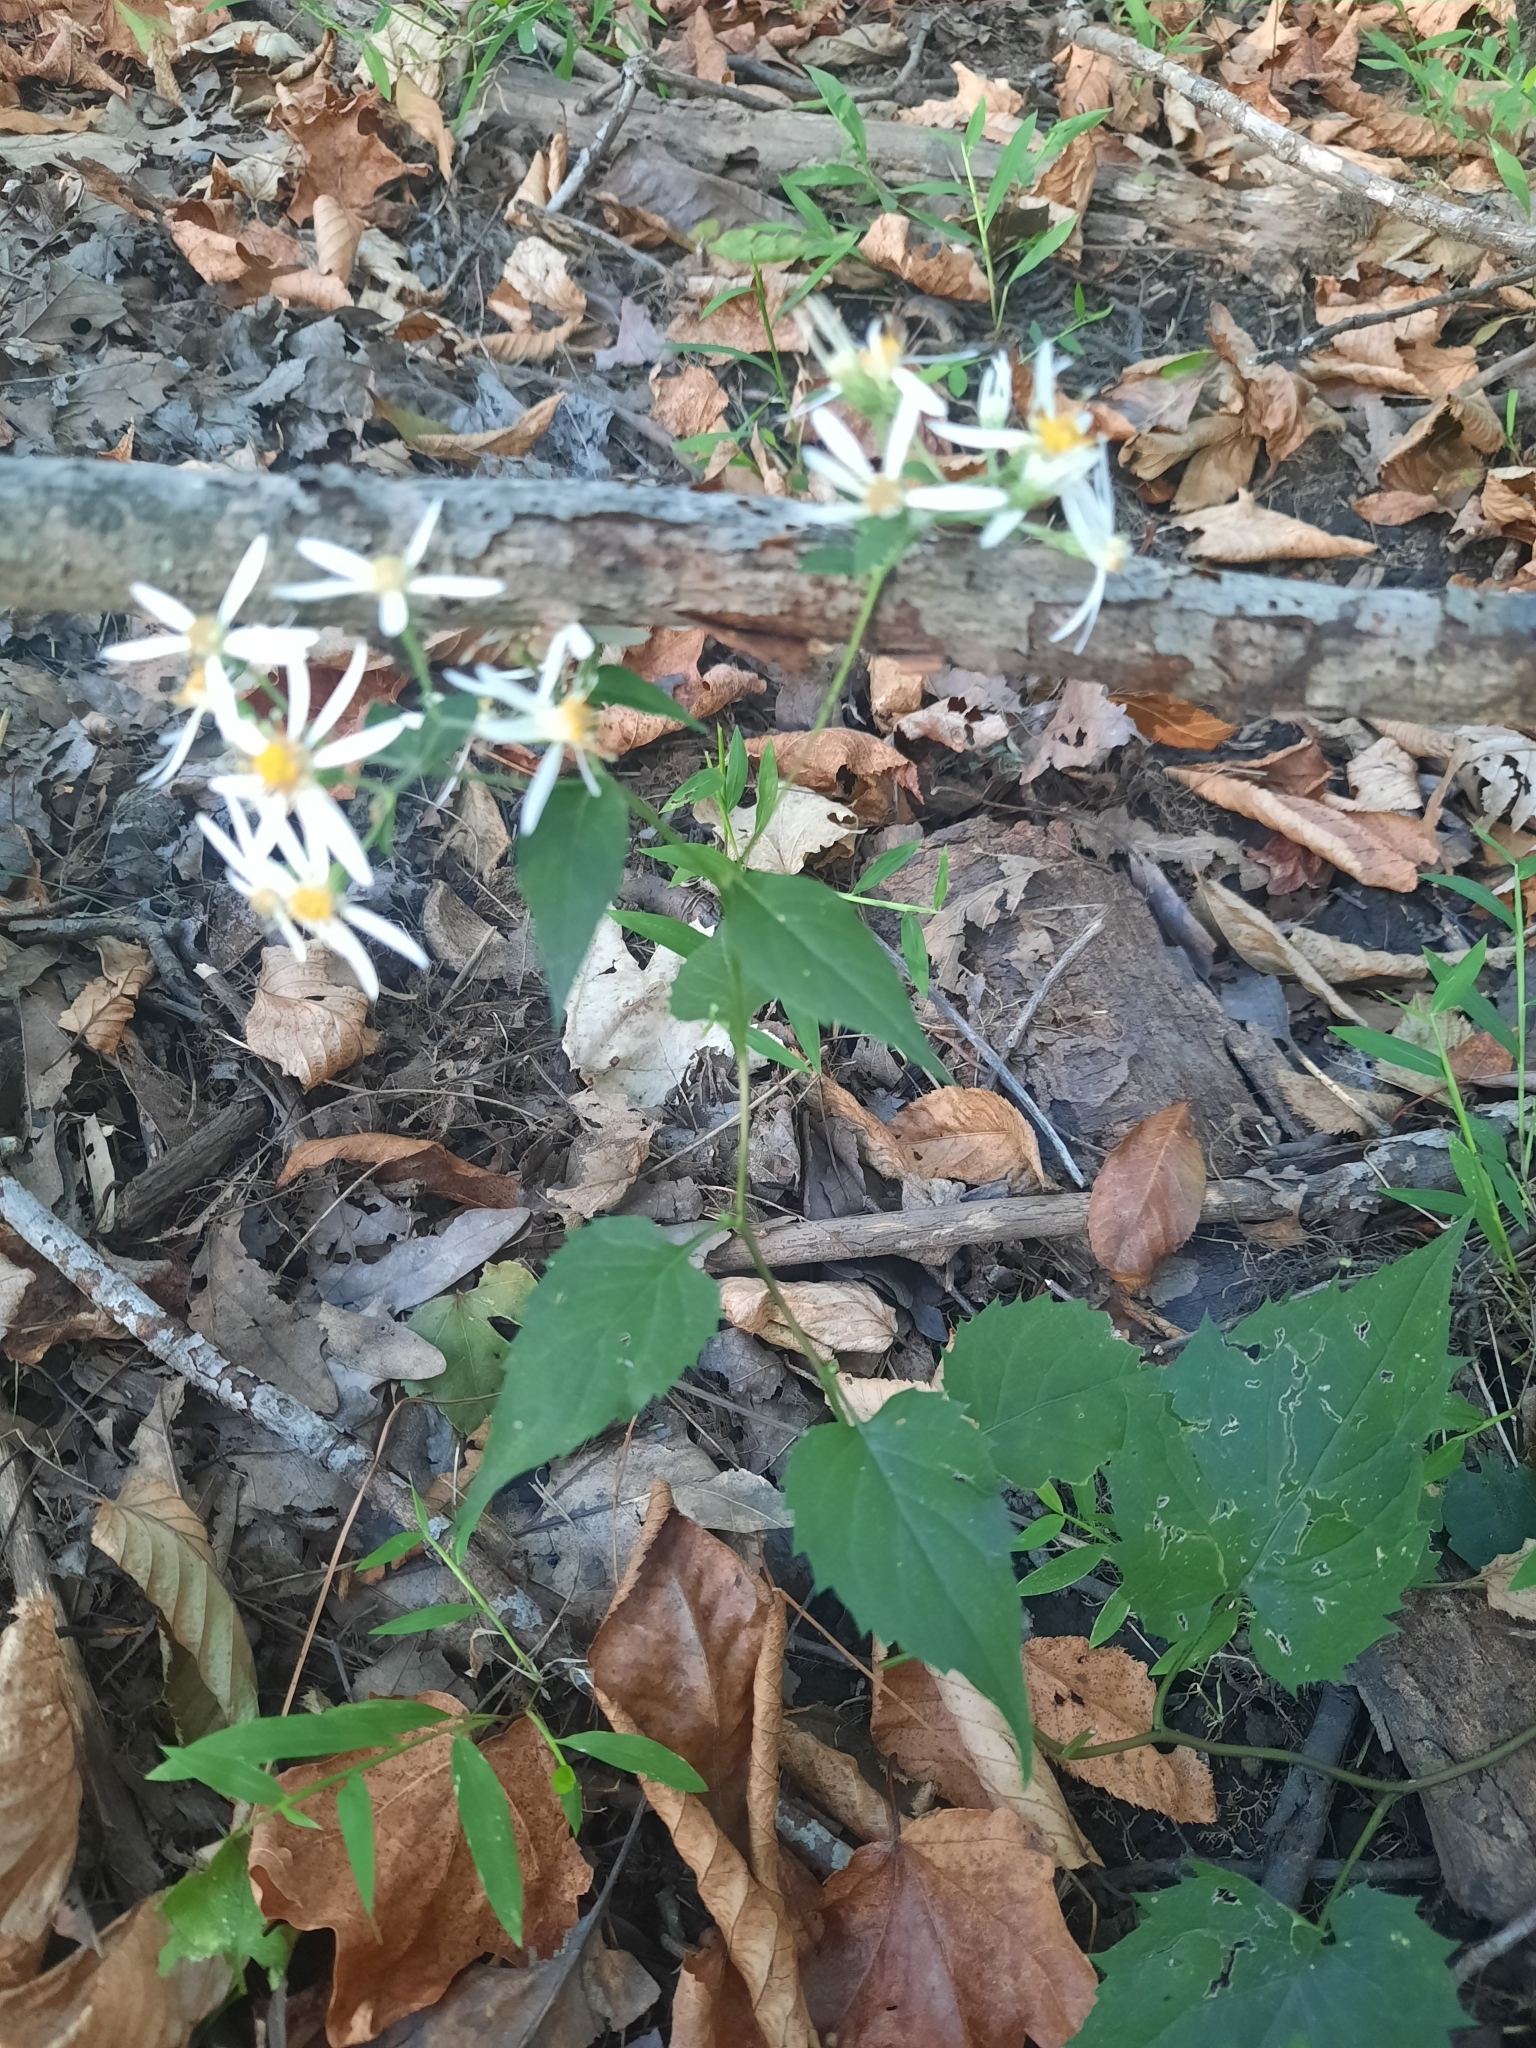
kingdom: Plantae
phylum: Tracheophyta
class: Magnoliopsida
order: Asterales
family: Asteraceae
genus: Eurybia
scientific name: Eurybia divaricata
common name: White wood aster
